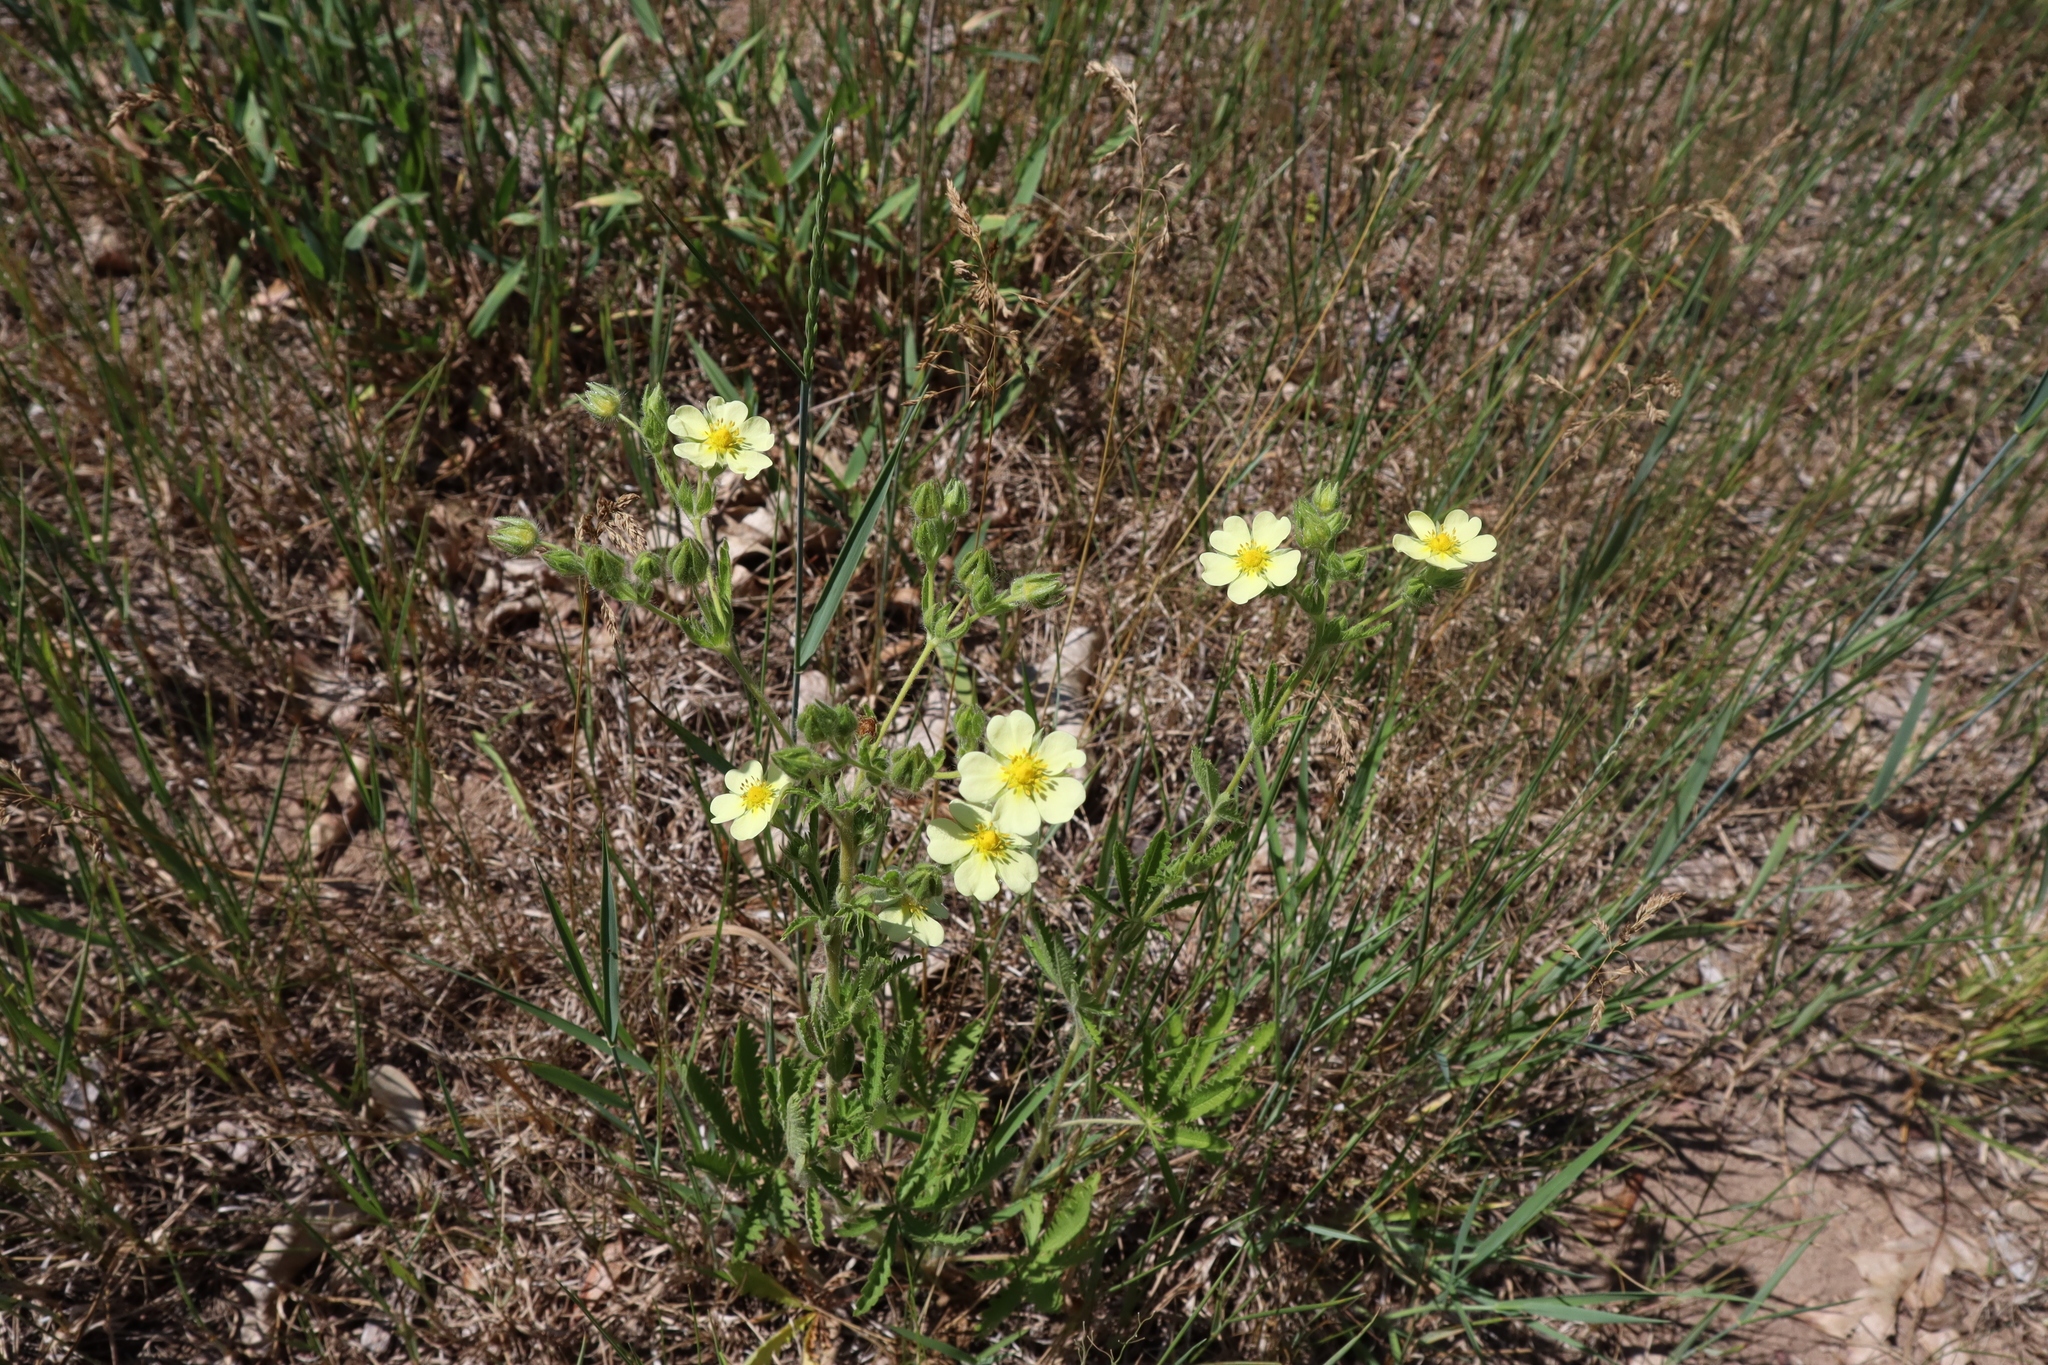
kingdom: Plantae
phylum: Tracheophyta
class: Magnoliopsida
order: Rosales
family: Rosaceae
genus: Potentilla
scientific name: Potentilla recta
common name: Sulphur cinquefoil
